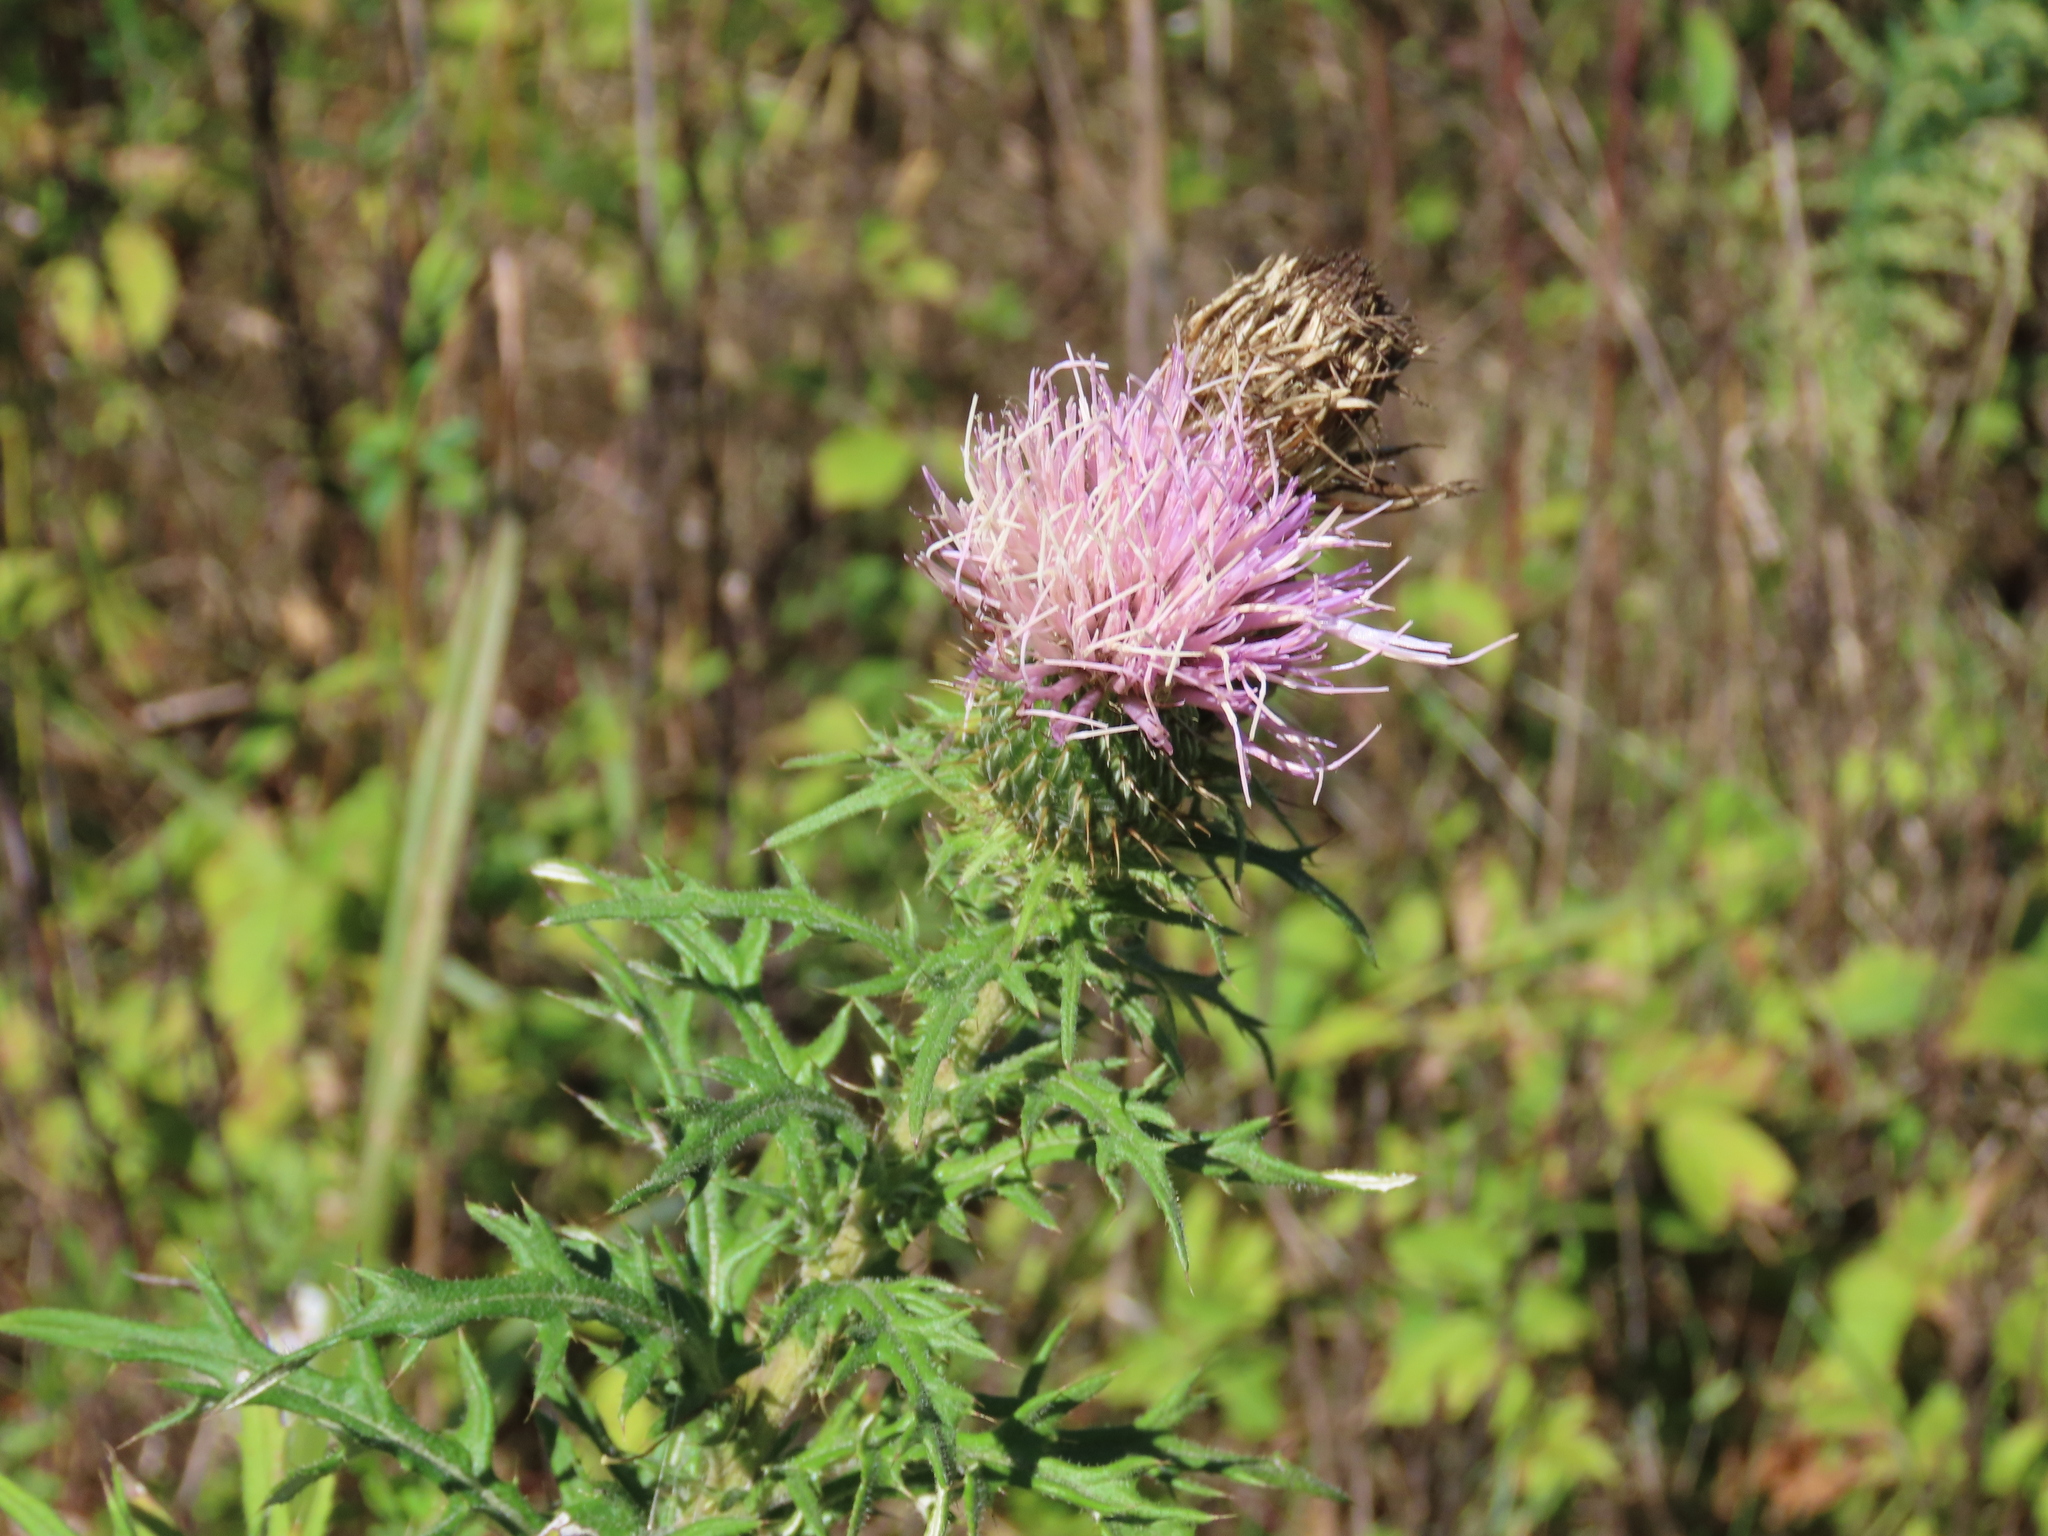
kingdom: Plantae
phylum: Tracheophyta
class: Magnoliopsida
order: Asterales
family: Asteraceae
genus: Cirsium
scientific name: Cirsium discolor
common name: Field thistle
